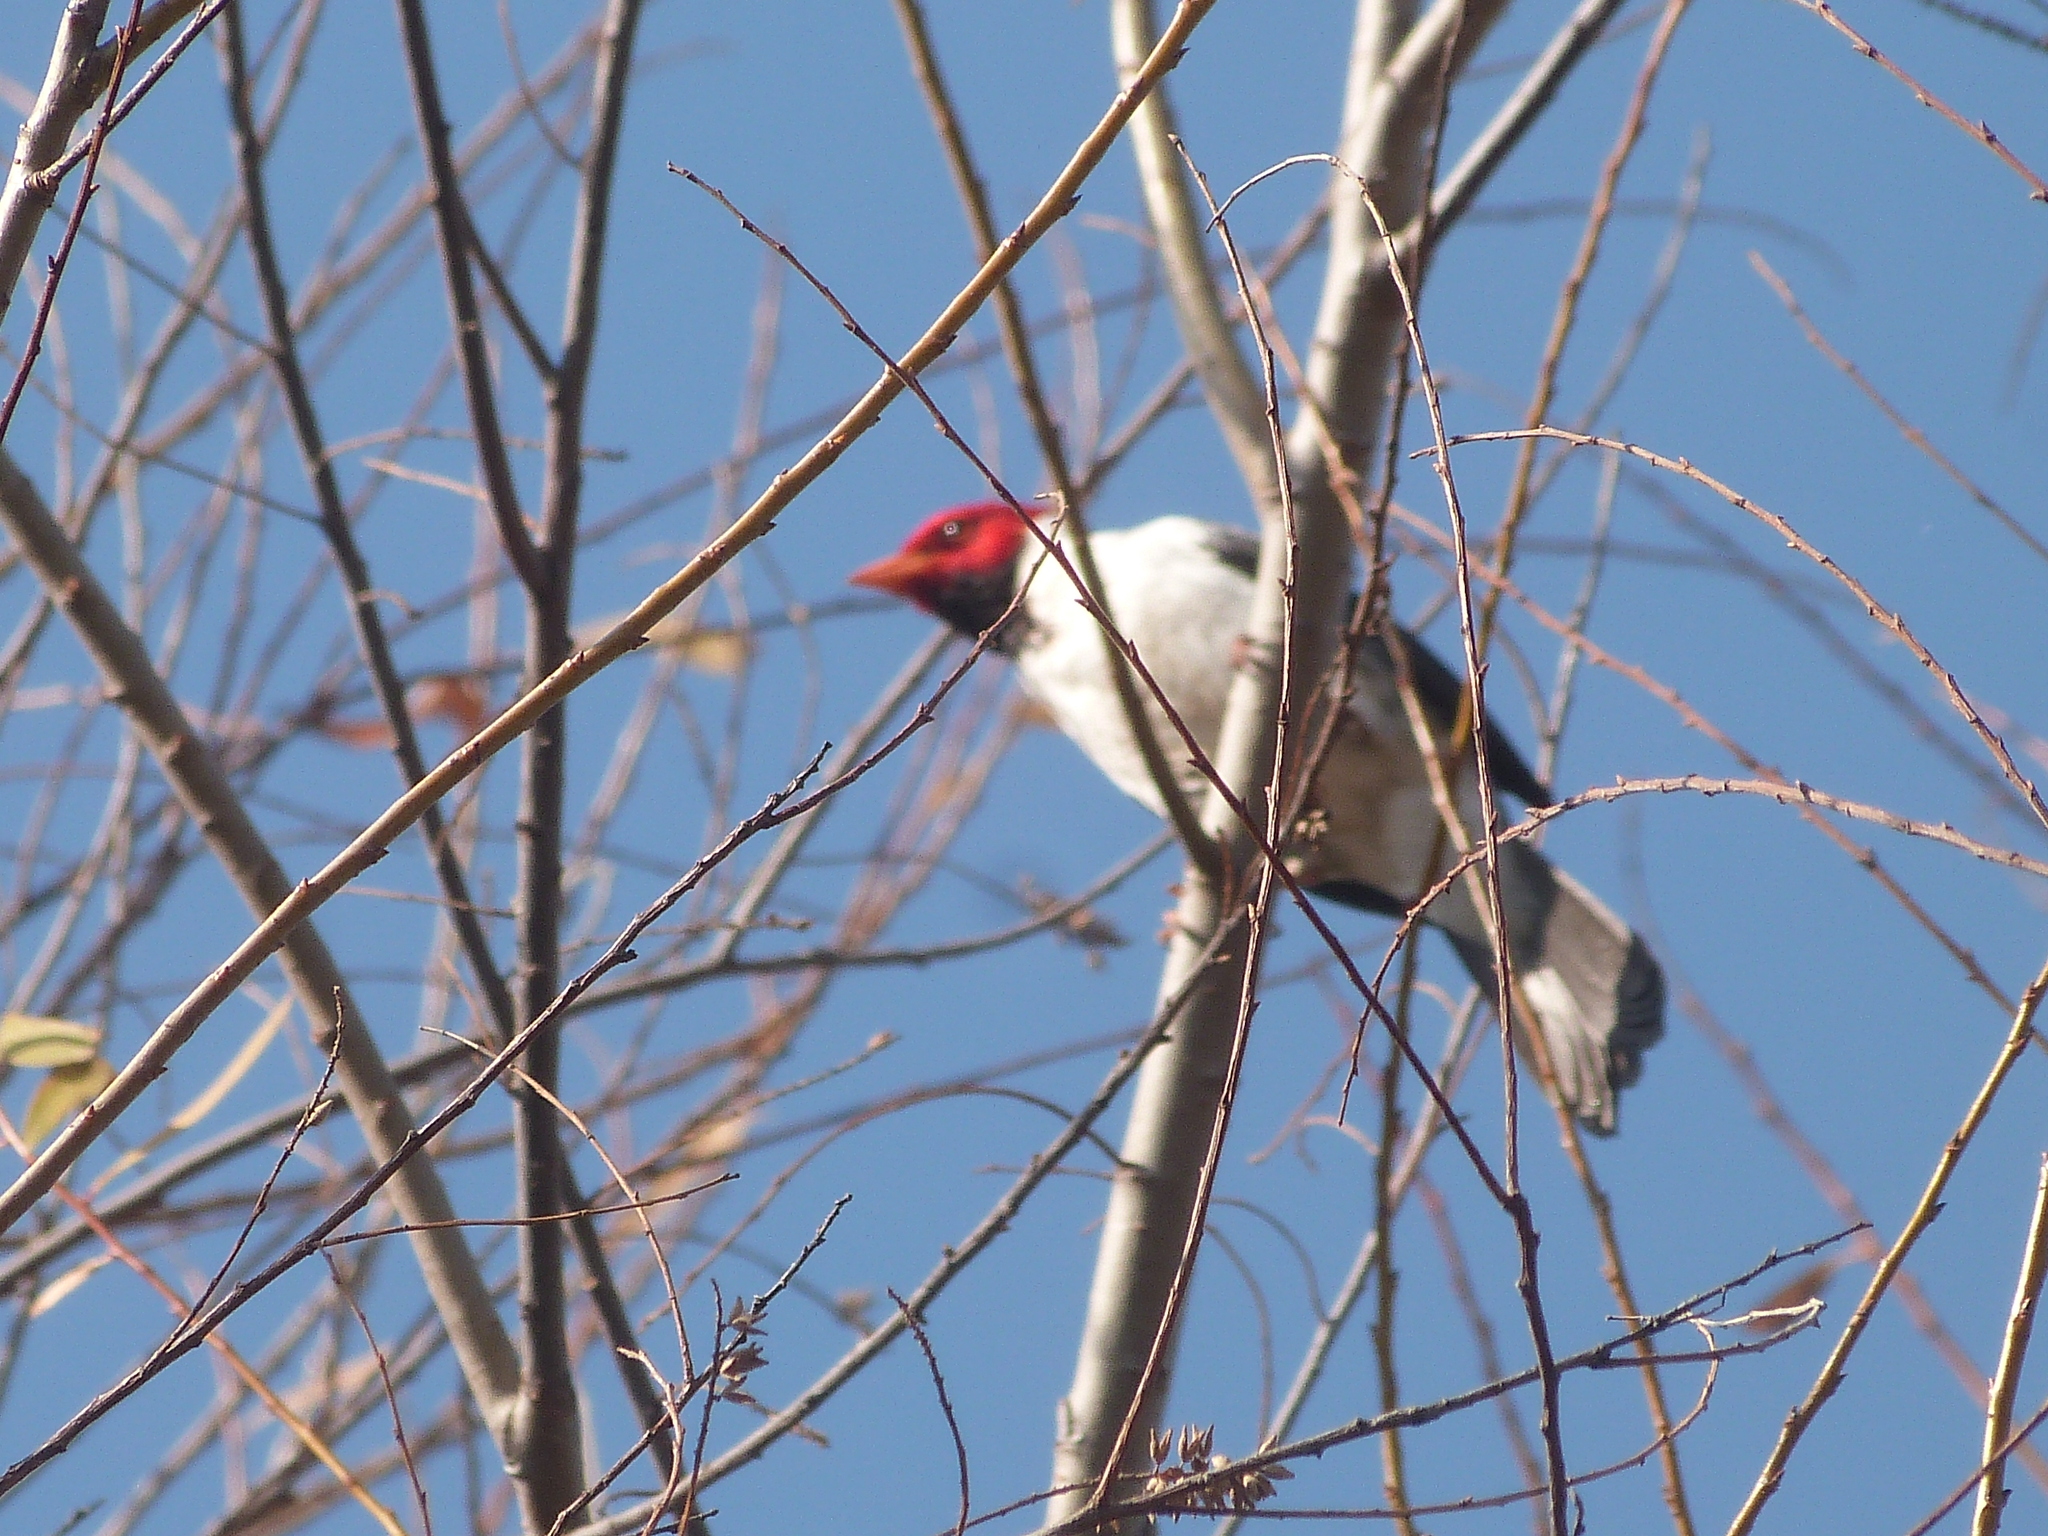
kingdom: Animalia
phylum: Chordata
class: Aves
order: Passeriformes
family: Thraupidae
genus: Paroaria
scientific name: Paroaria capitata
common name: Yellow-billed cardinal
